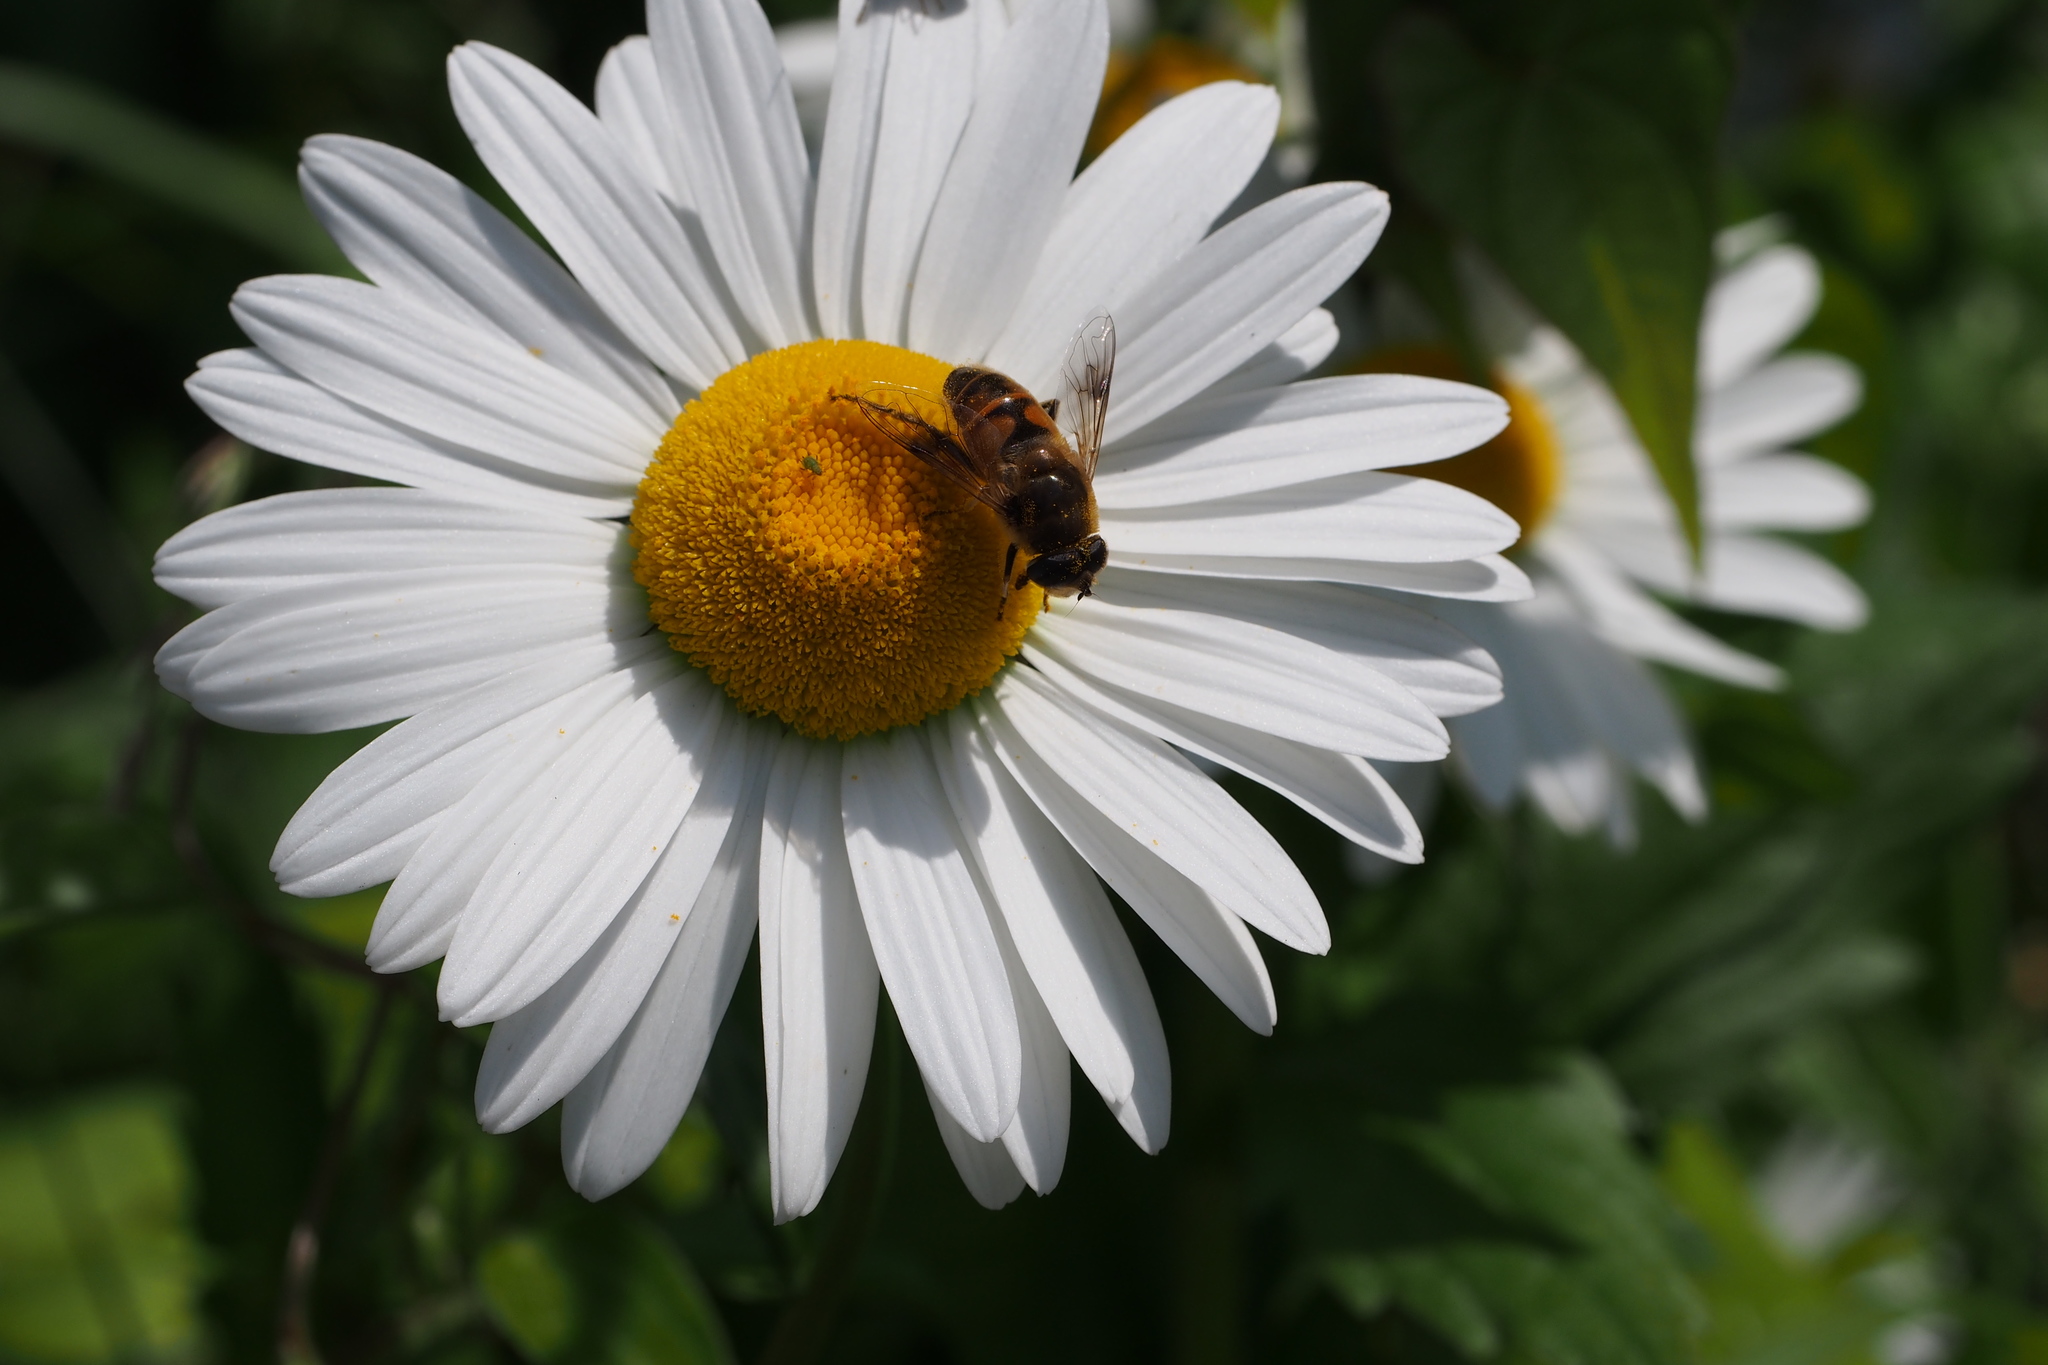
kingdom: Animalia
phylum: Arthropoda
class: Insecta
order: Diptera
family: Syrphidae
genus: Eristalis
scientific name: Eristalis tenax
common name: Drone fly
